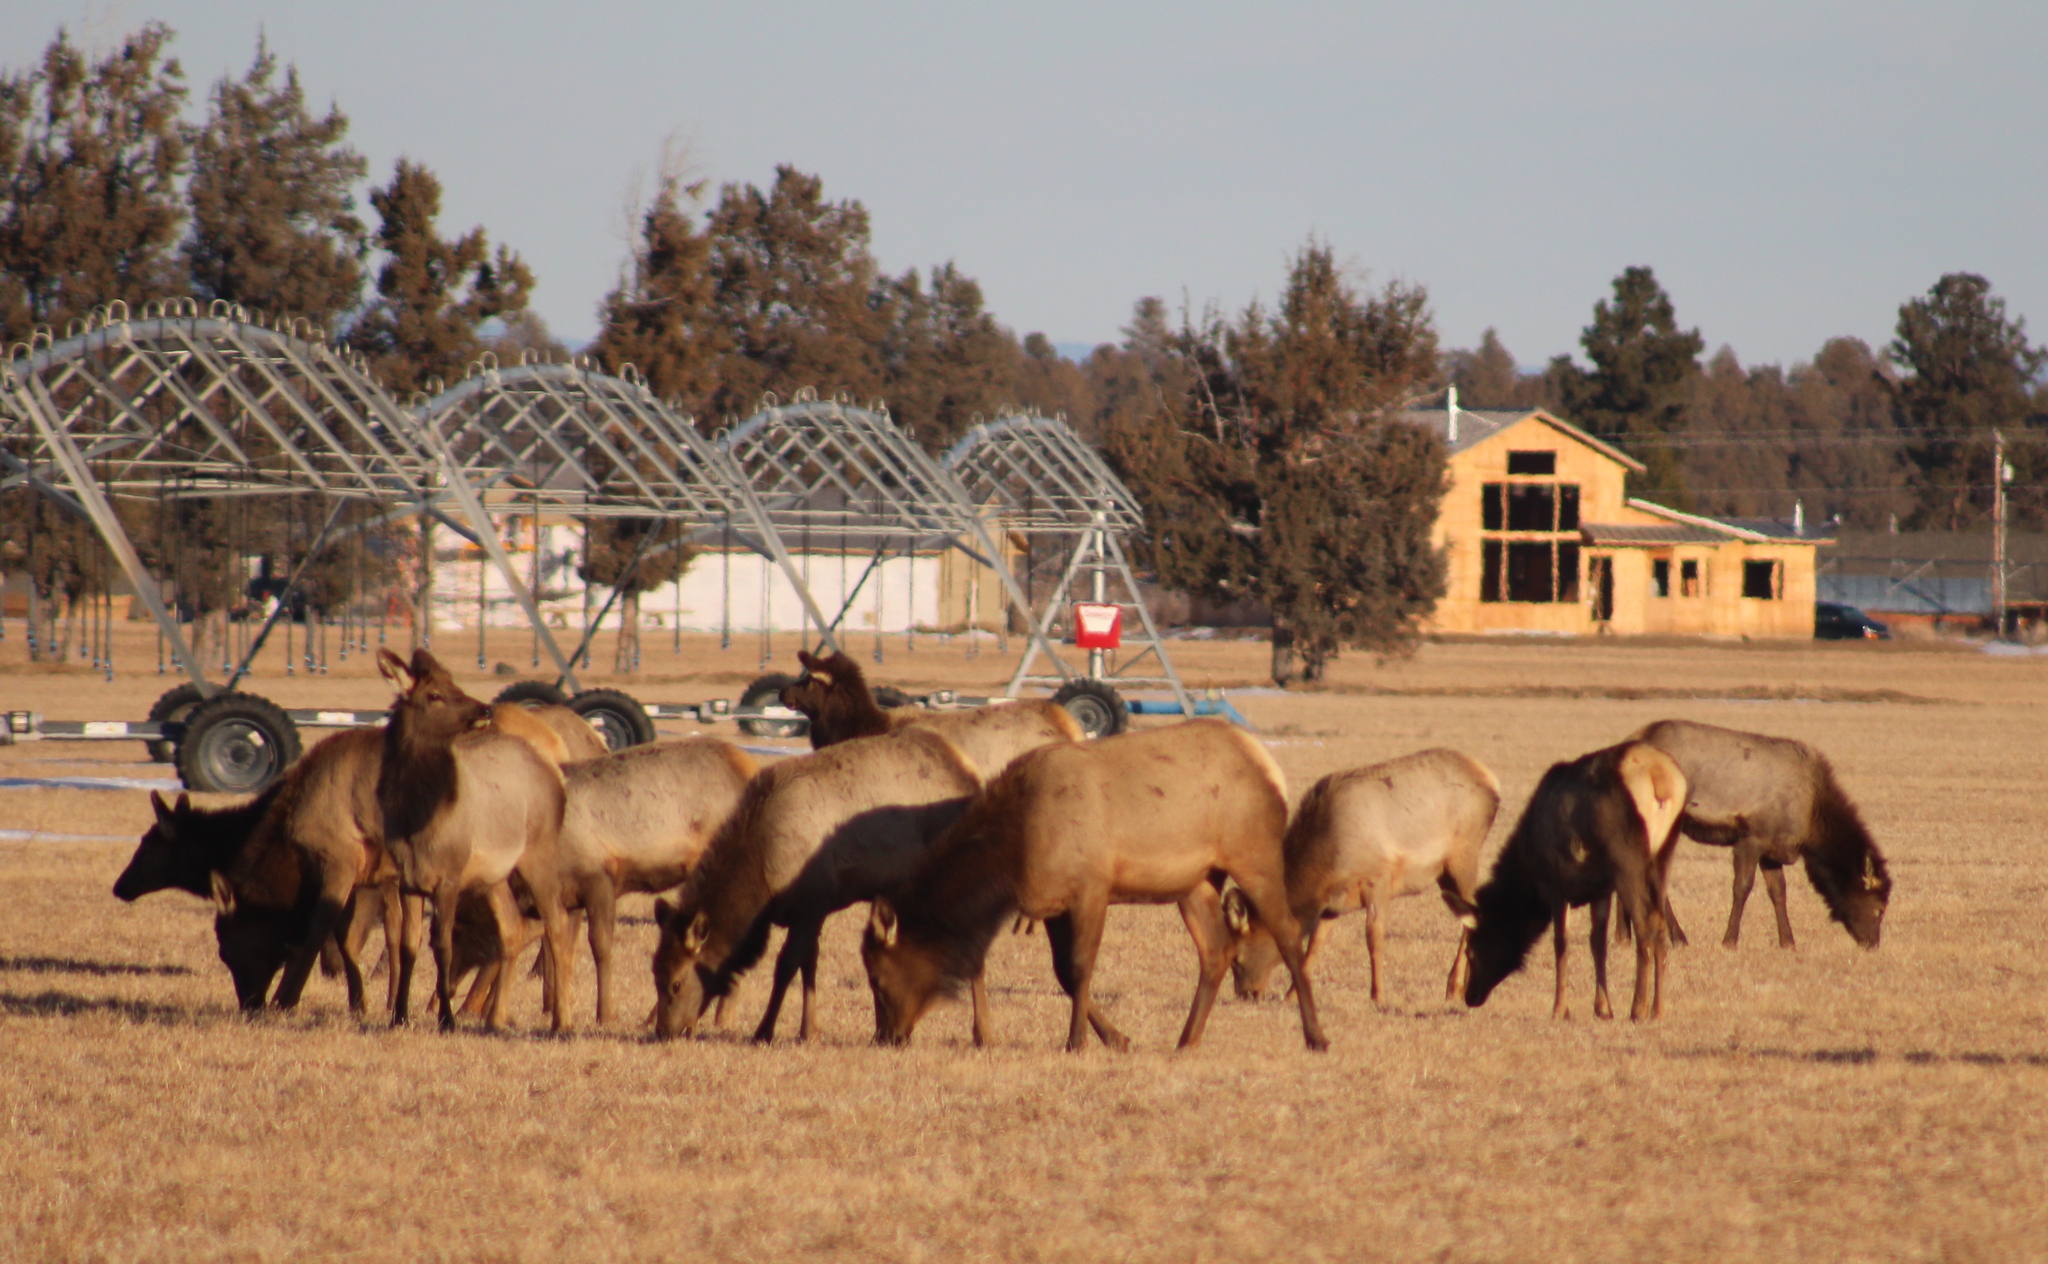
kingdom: Animalia
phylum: Chordata
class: Mammalia
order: Artiodactyla
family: Cervidae
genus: Cervus
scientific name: Cervus elaphus
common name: Red deer
